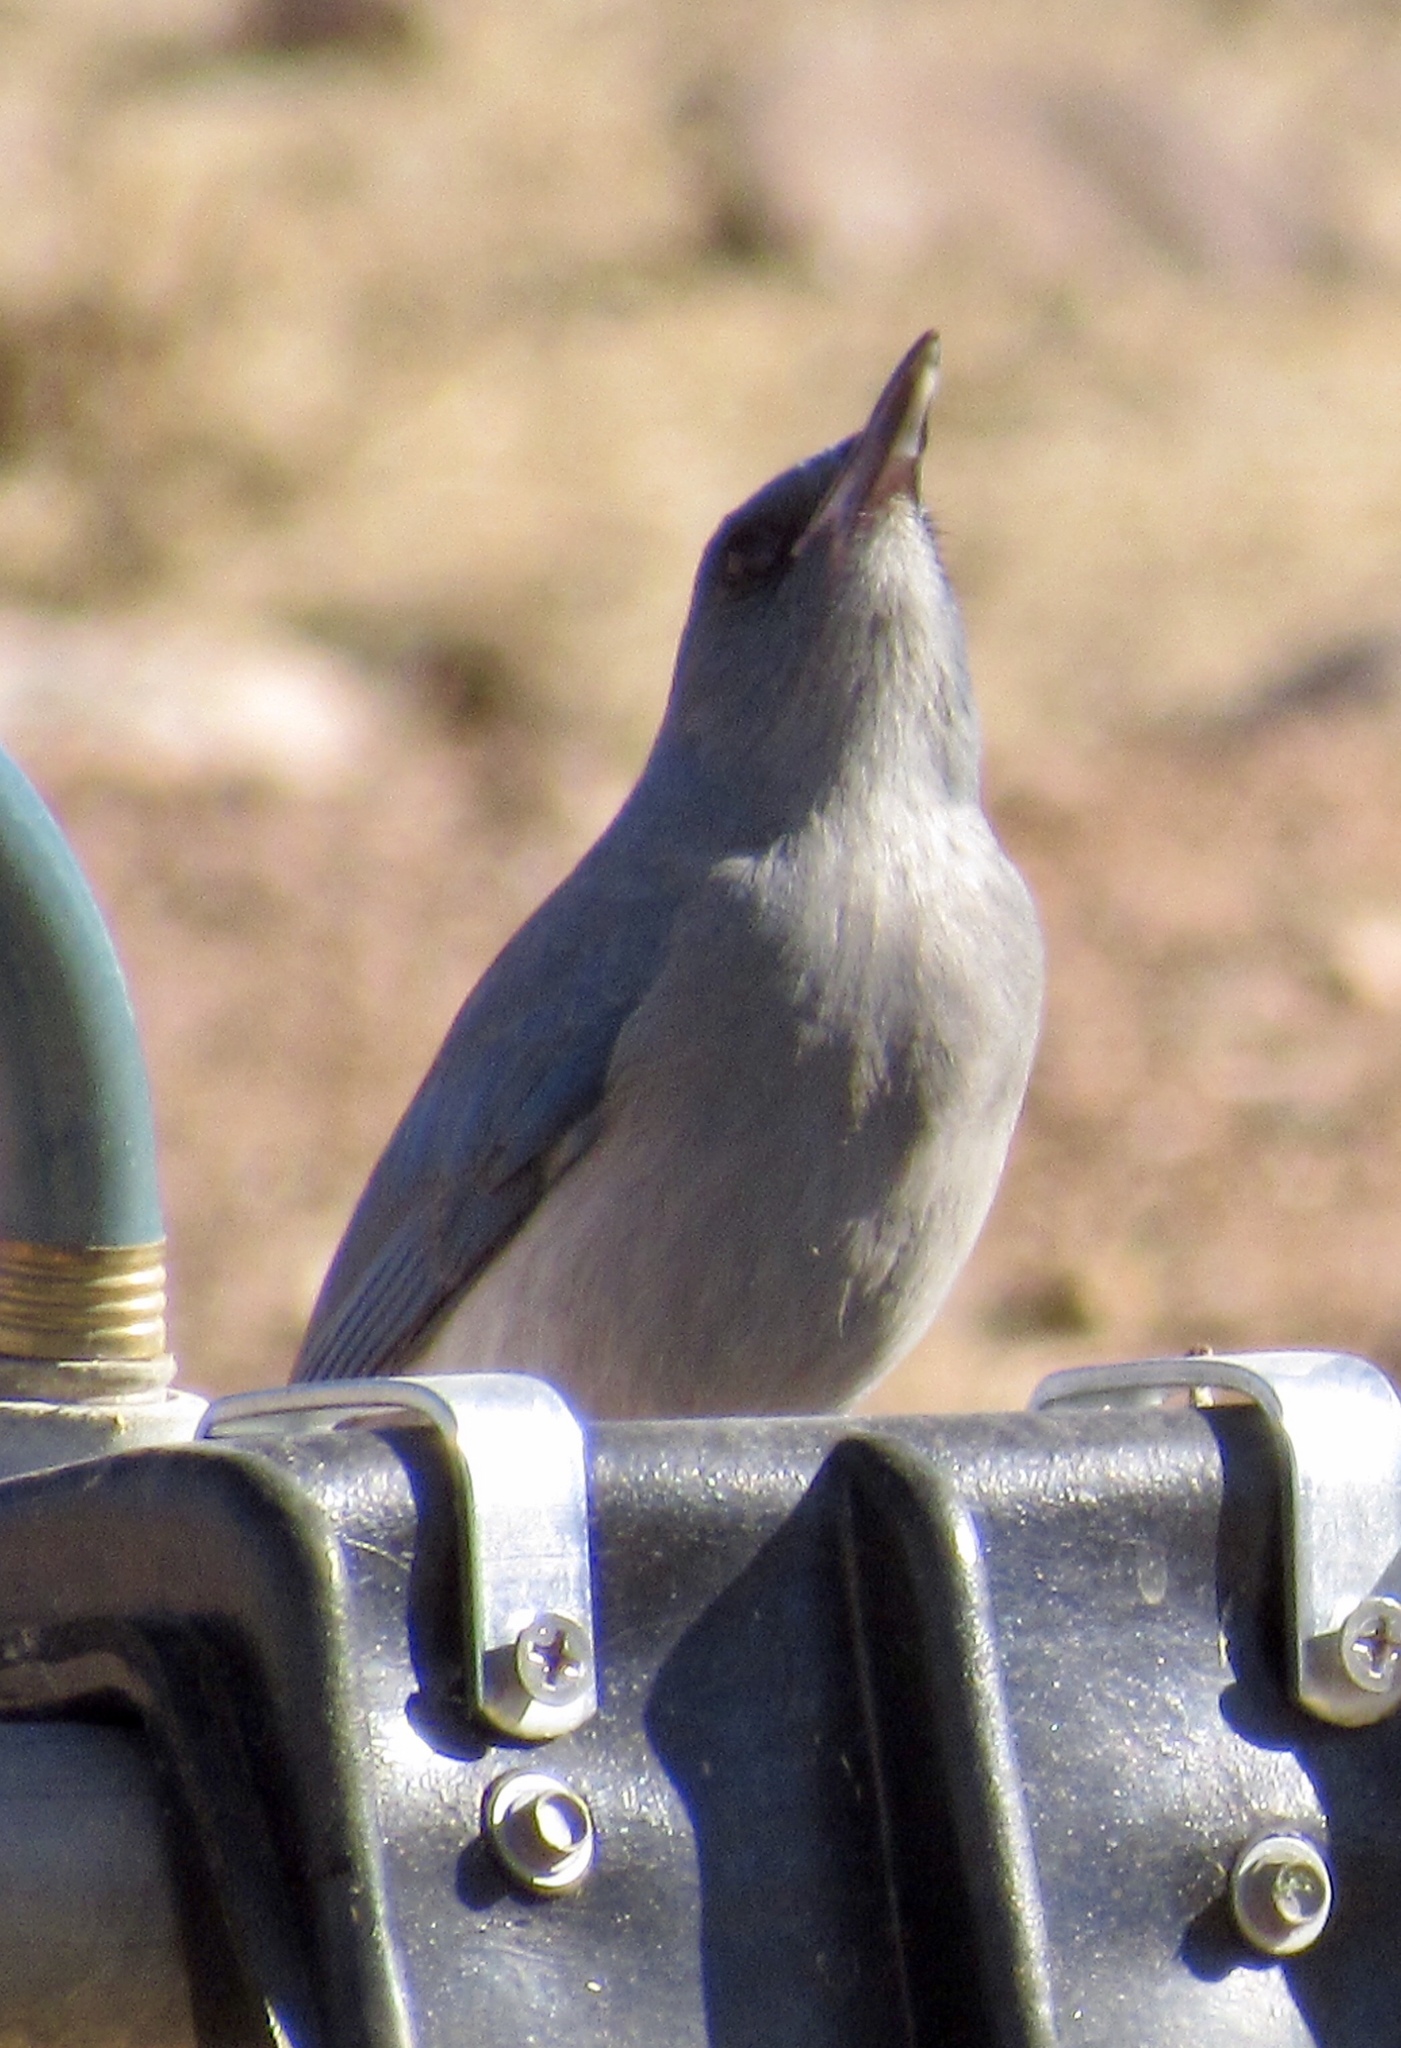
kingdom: Animalia
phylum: Chordata
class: Aves
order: Passeriformes
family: Corvidae
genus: Aphelocoma
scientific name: Aphelocoma wollweberi
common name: Mexican jay
